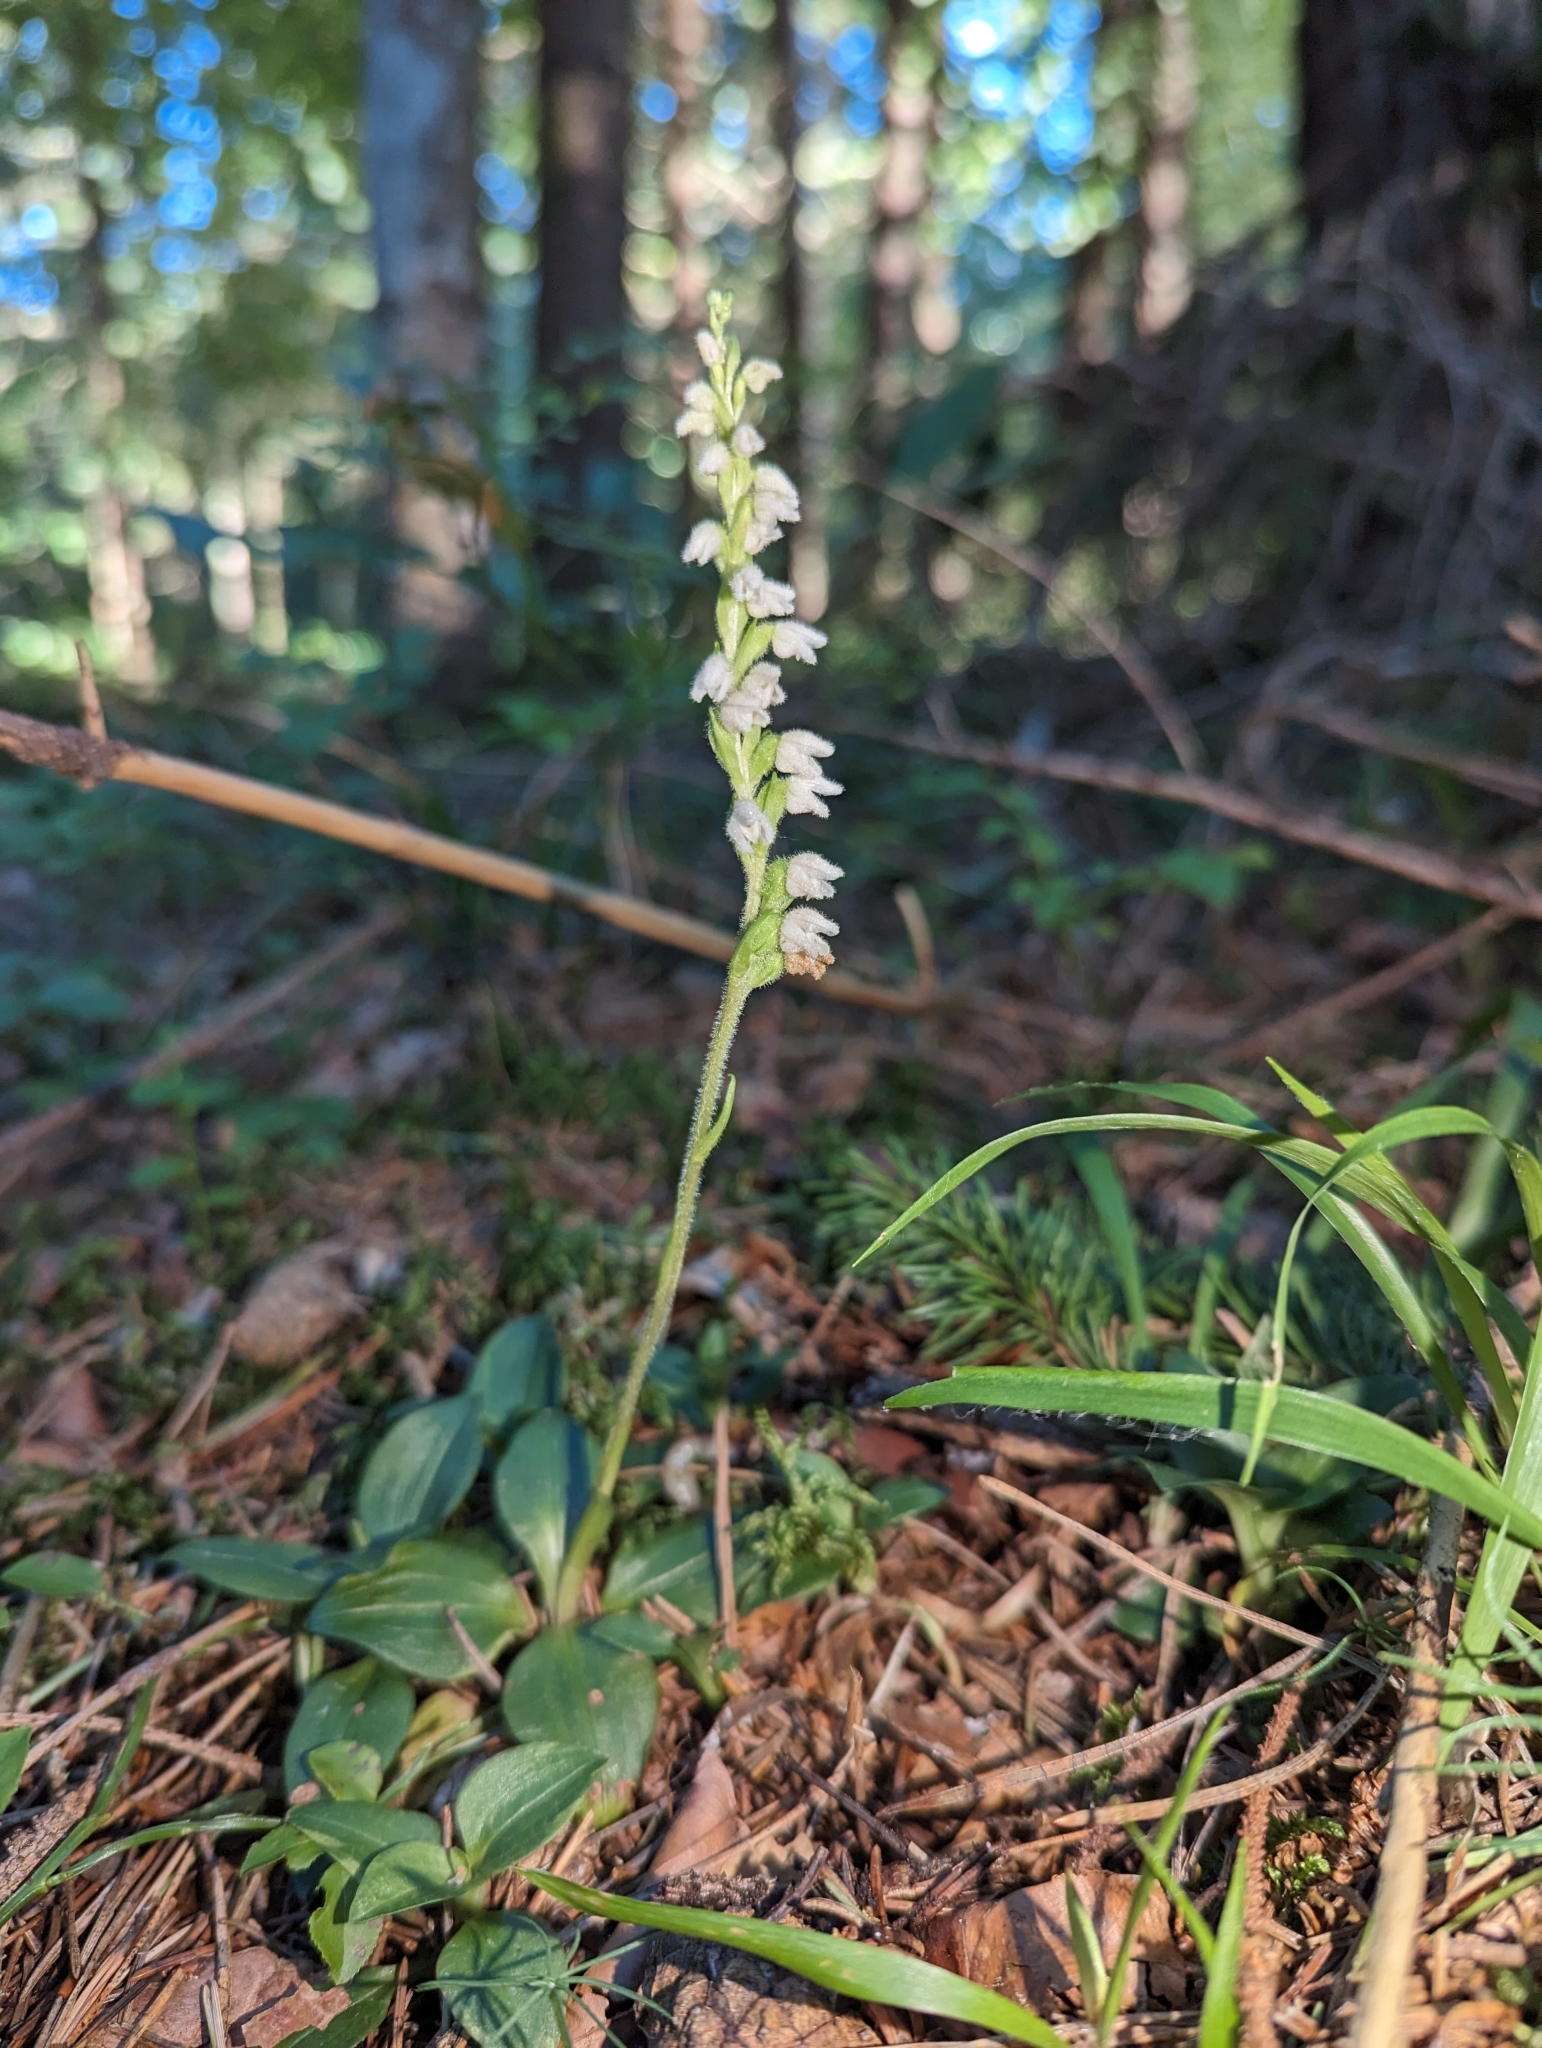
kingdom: Plantae
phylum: Tracheophyta
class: Liliopsida
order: Asparagales
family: Orchidaceae
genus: Goodyera
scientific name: Goodyera repens
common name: Creeping lady's-tresses
